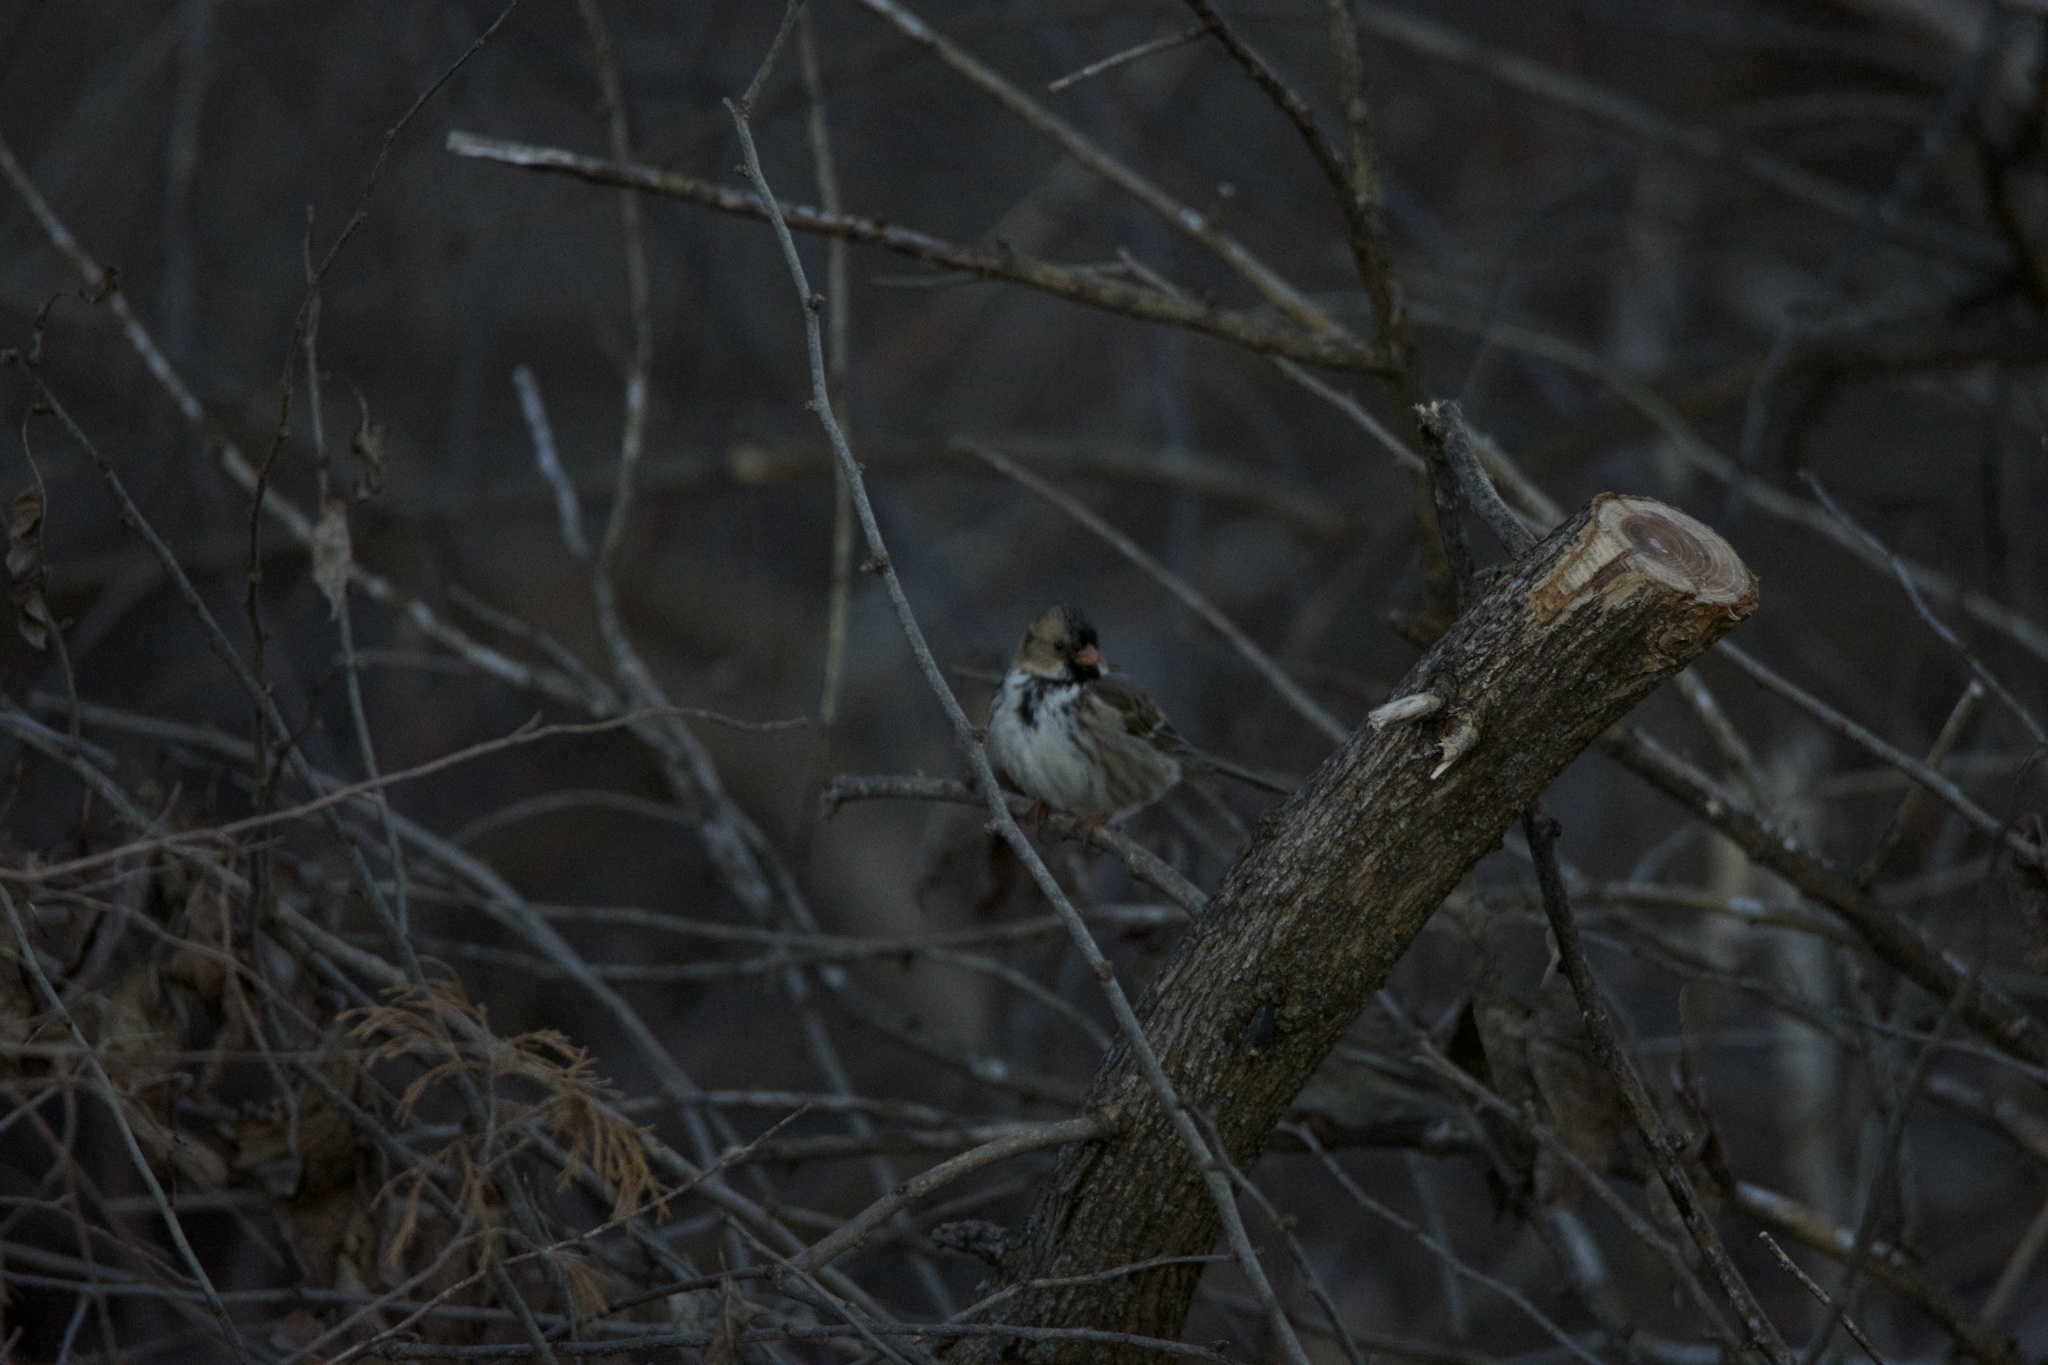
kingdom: Animalia
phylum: Chordata
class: Aves
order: Passeriformes
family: Passerellidae
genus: Zonotrichia
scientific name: Zonotrichia querula
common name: Harris's sparrow
